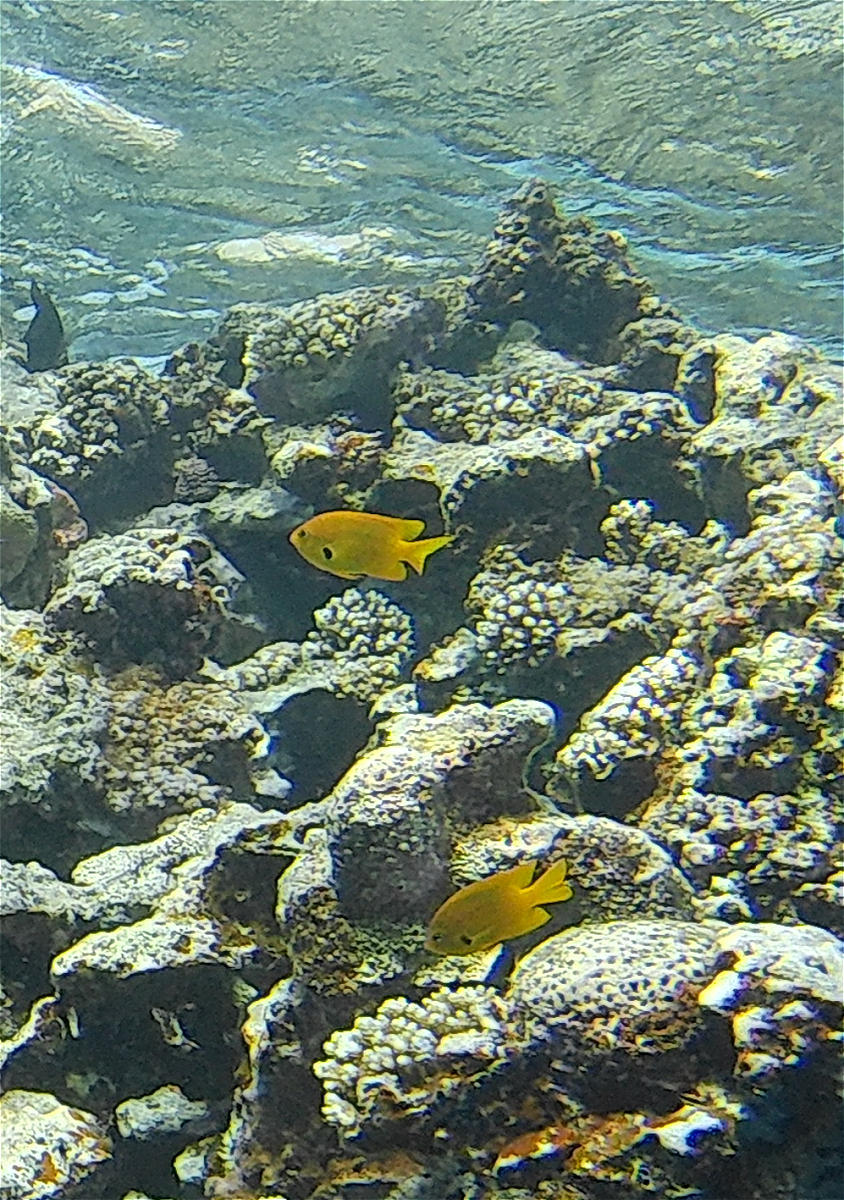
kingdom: Animalia
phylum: Chordata
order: Perciformes
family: Pomacentridae
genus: Pomacentrus
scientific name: Pomacentrus sulfureus
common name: Sulfur damsel
